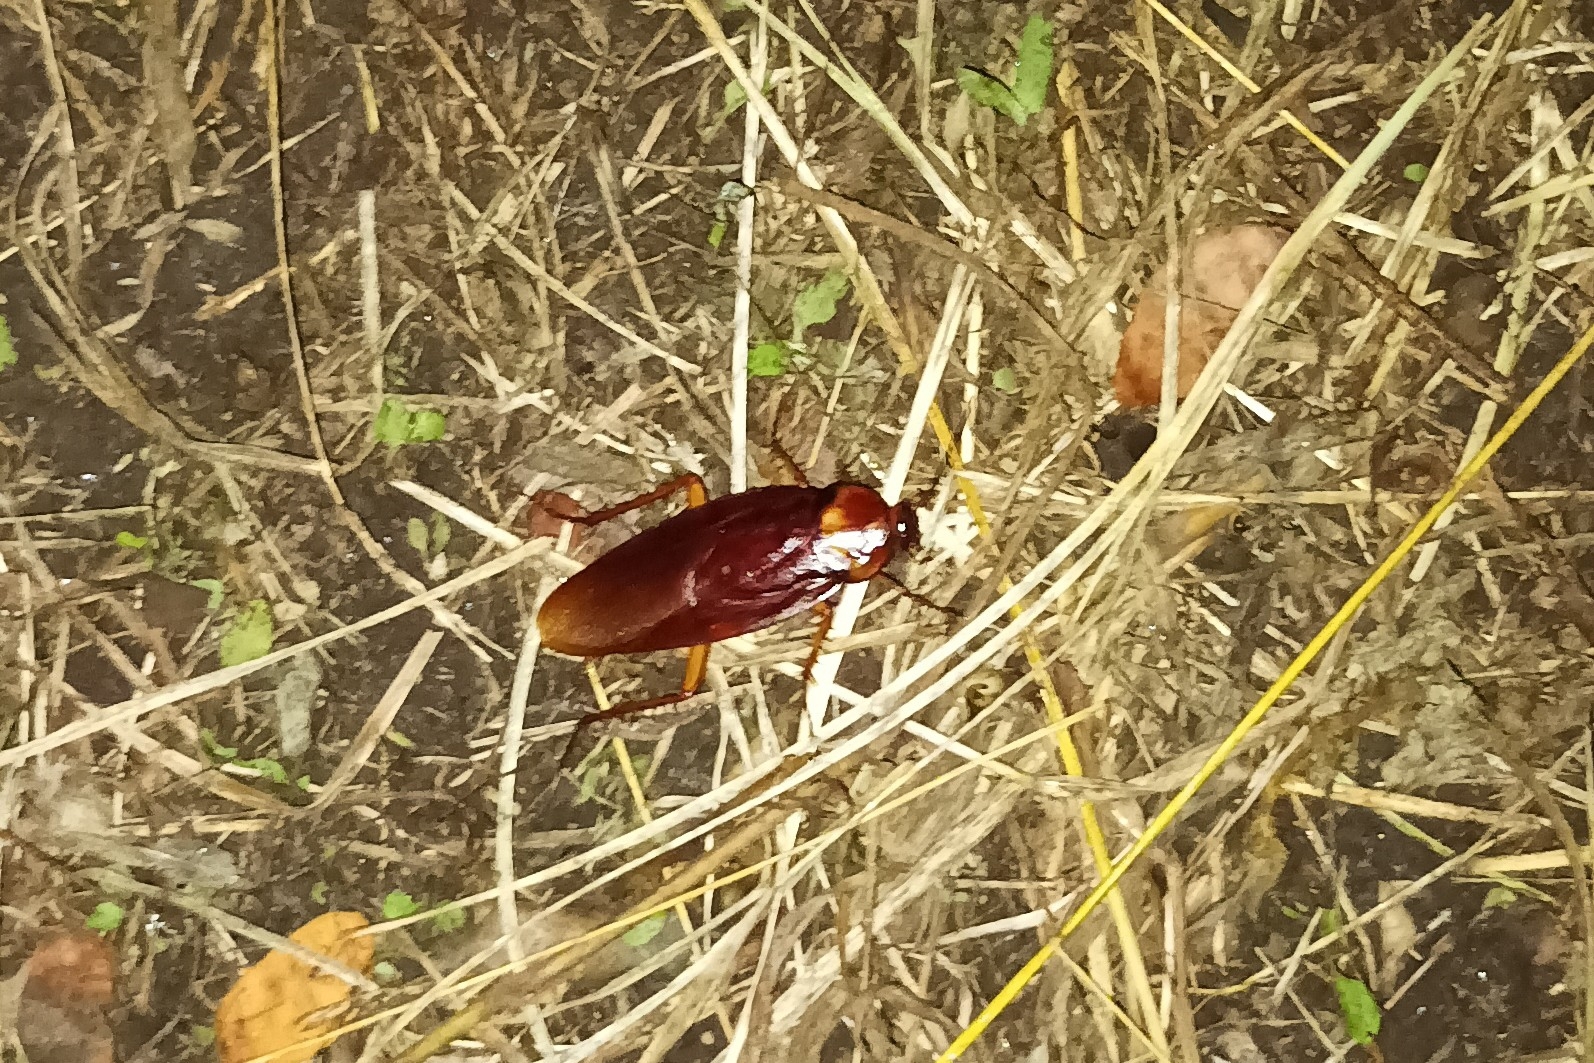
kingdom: Animalia
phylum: Arthropoda
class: Insecta
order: Blattodea
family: Blattidae
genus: Periplaneta
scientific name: Periplaneta americana
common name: American cockroach
